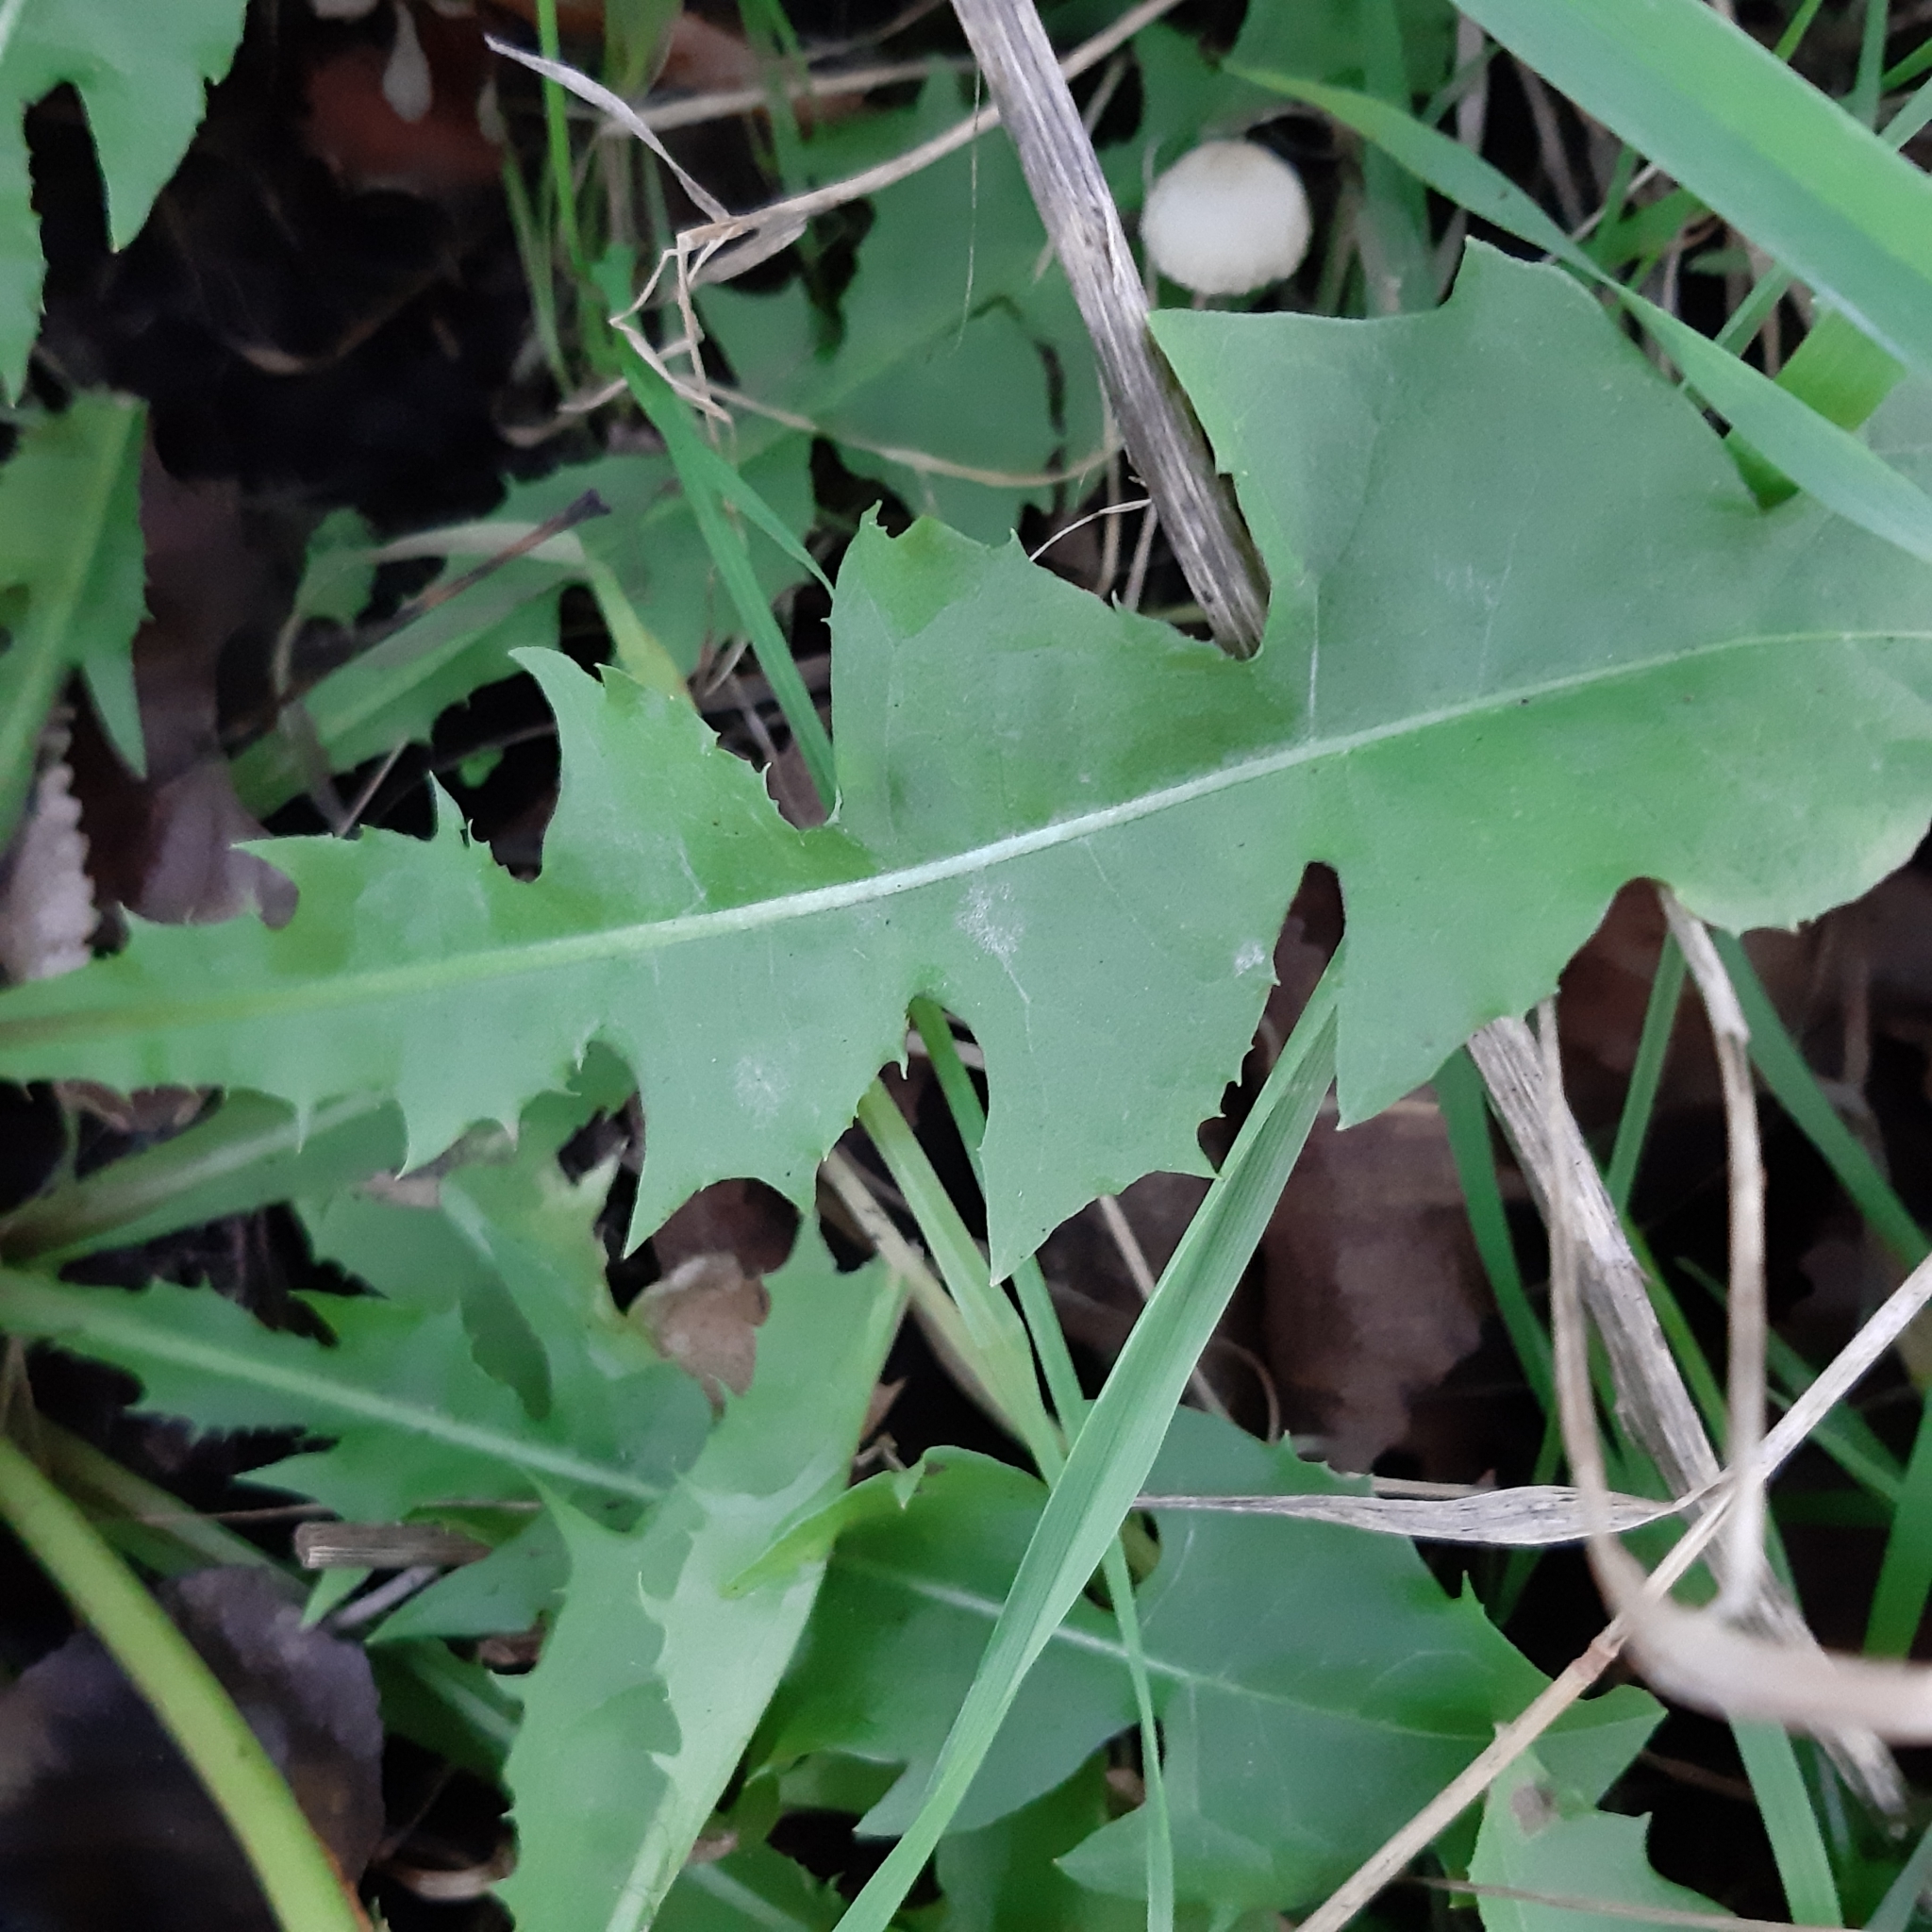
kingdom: Plantae
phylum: Tracheophyta
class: Magnoliopsida
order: Asterales
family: Asteraceae
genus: Taraxacum
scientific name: Taraxacum officinale
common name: Common dandelion
